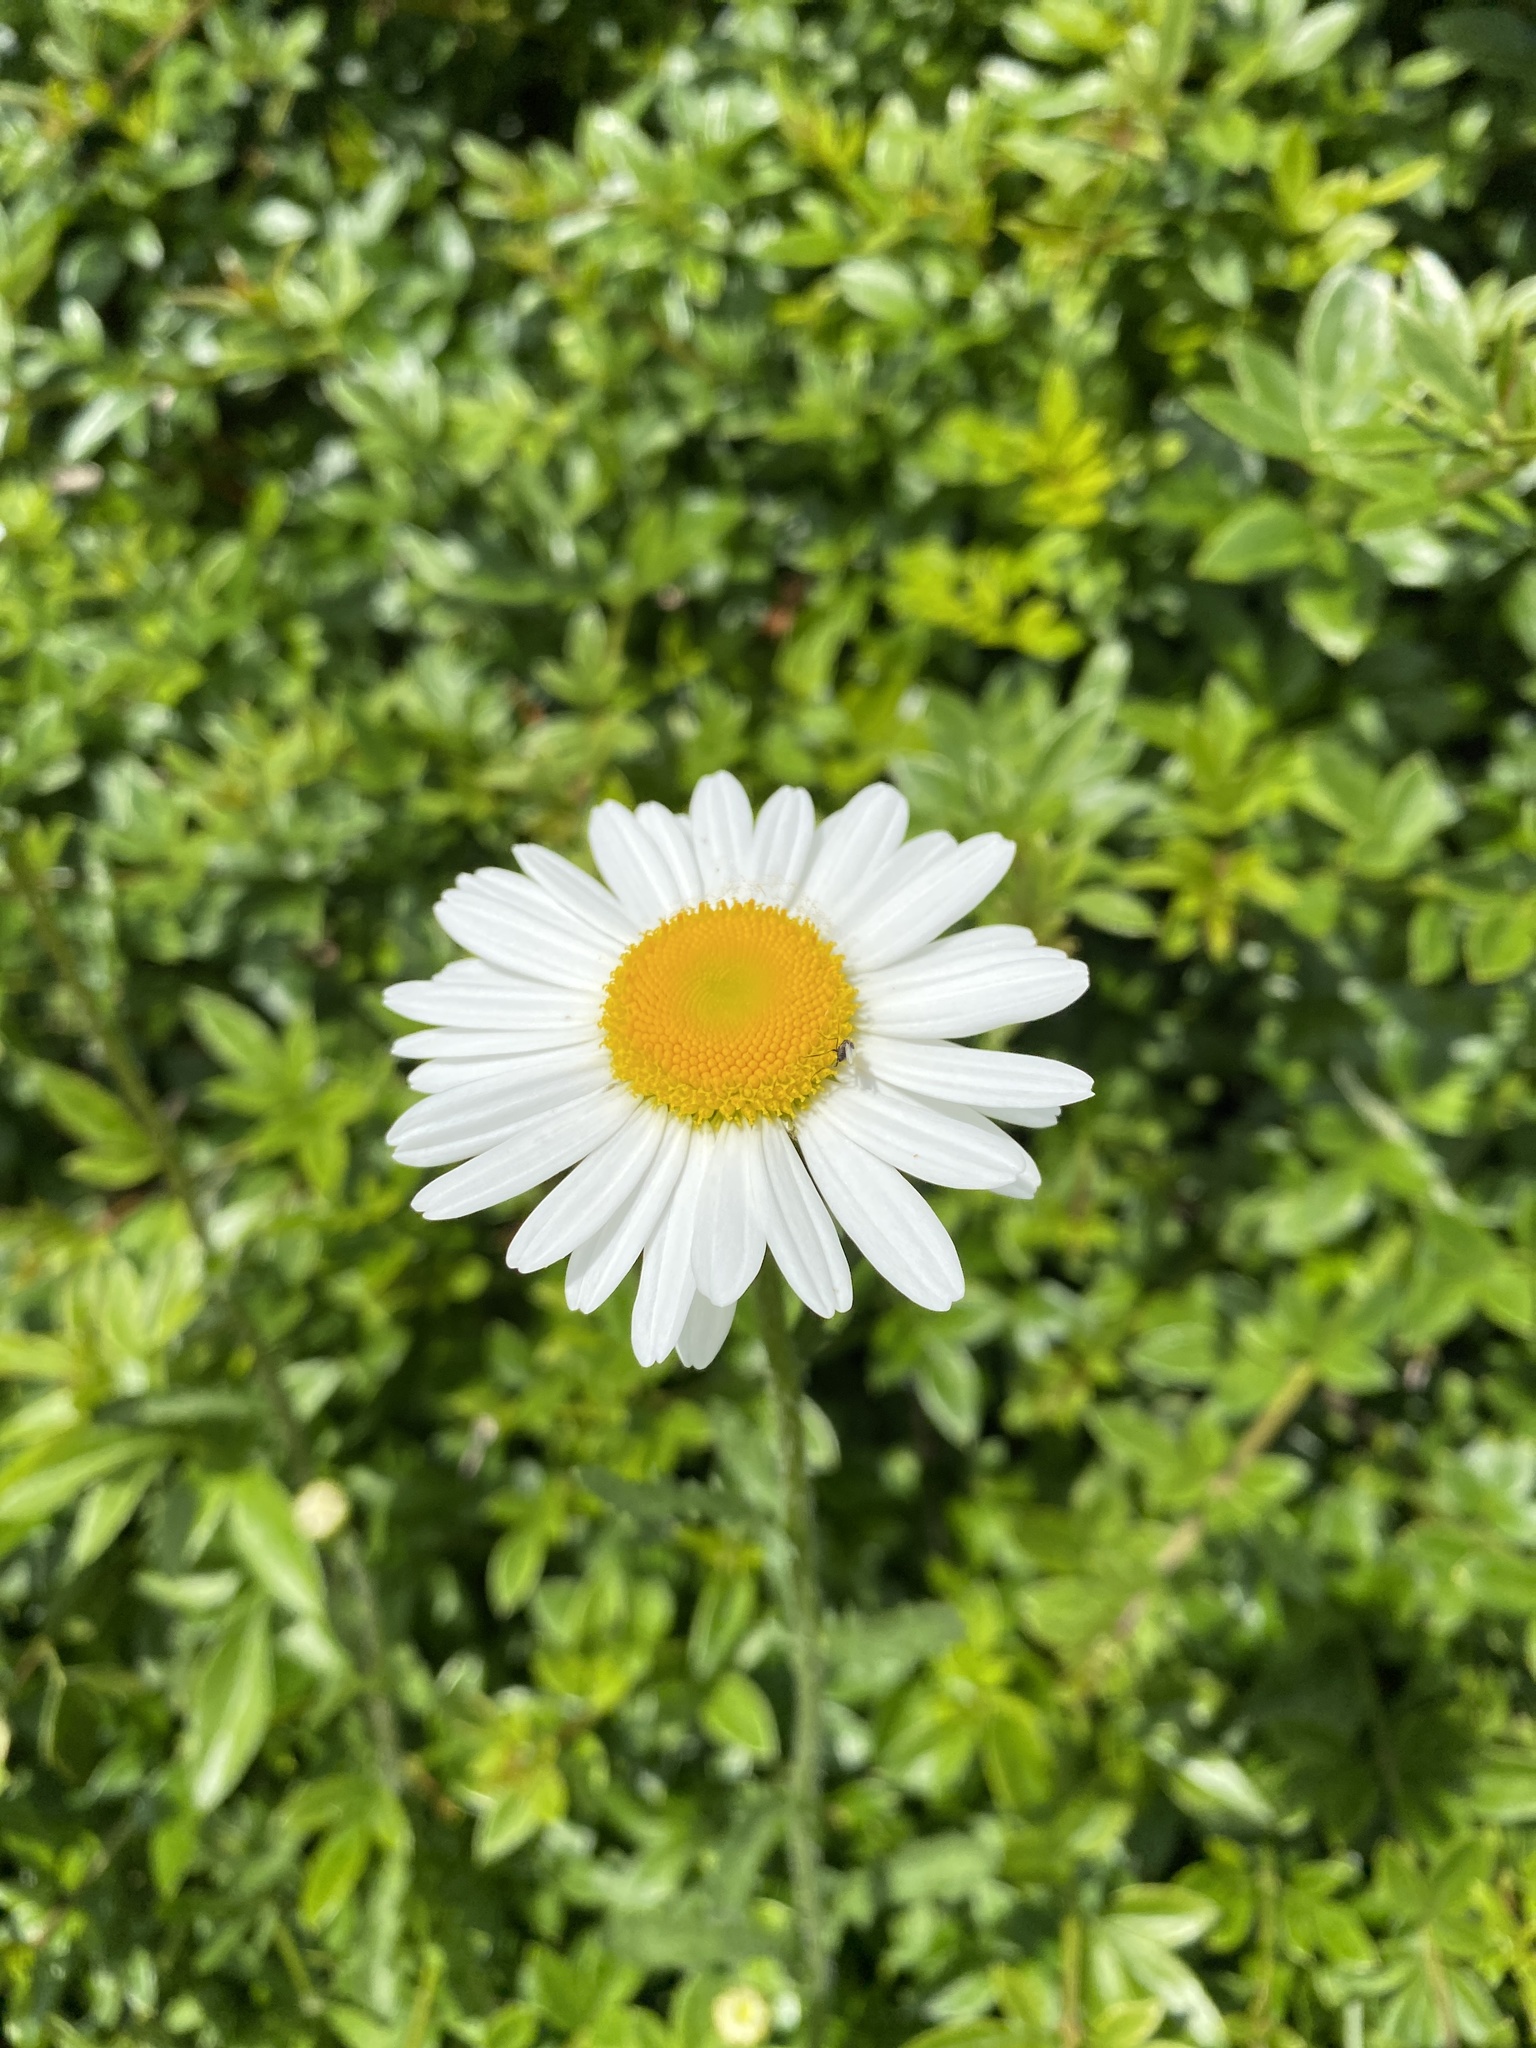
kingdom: Plantae
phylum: Tracheophyta
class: Magnoliopsida
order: Asterales
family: Asteraceae
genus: Leucanthemum
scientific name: Leucanthemum vulgare
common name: Oxeye daisy
